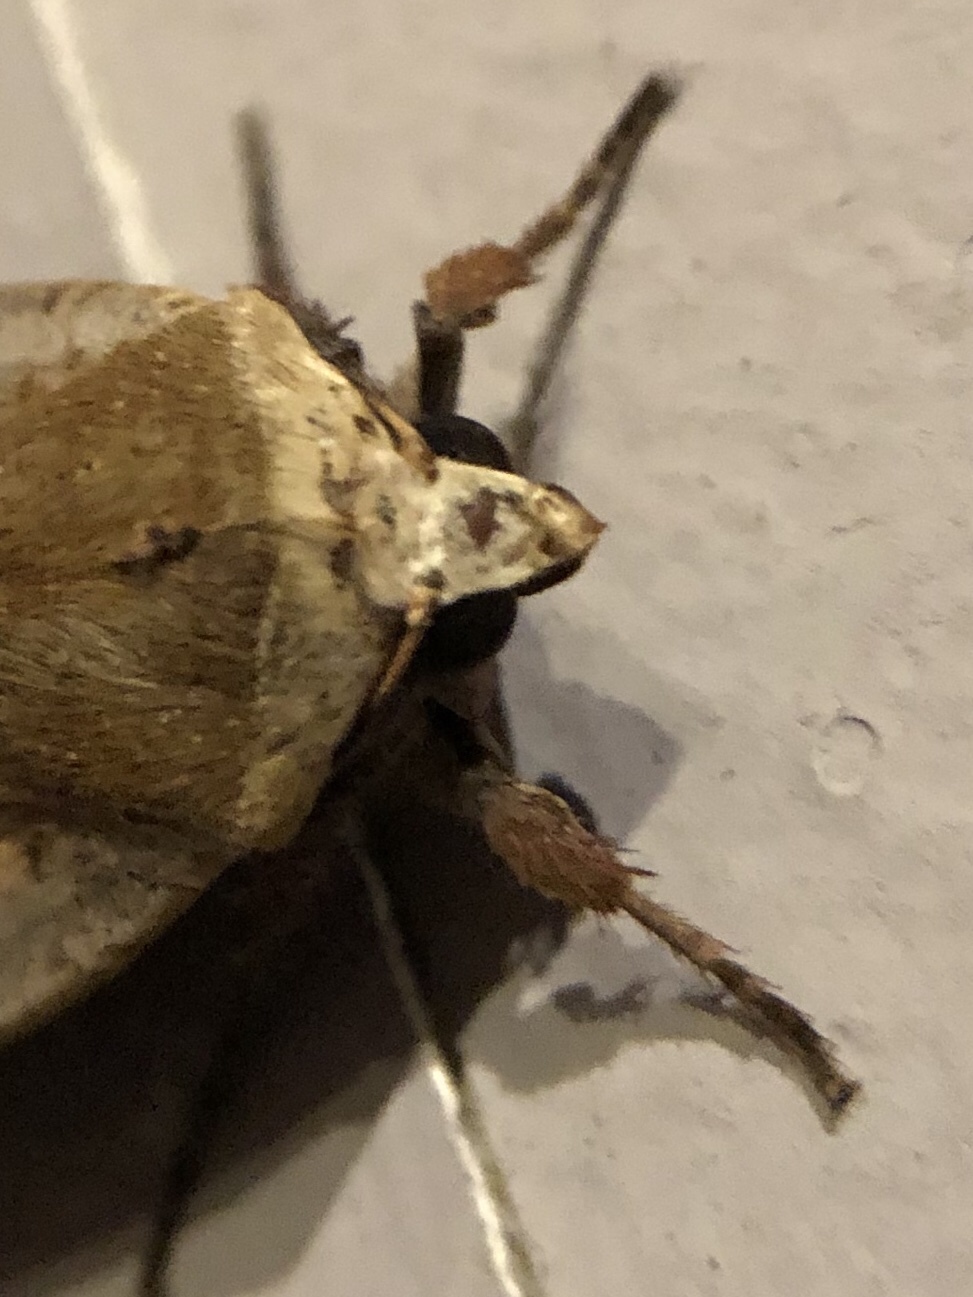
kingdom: Animalia
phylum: Arthropoda
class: Insecta
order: Lepidoptera
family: Noctuidae
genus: Noctua
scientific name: Noctua pronuba
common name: Large yellow underwing
